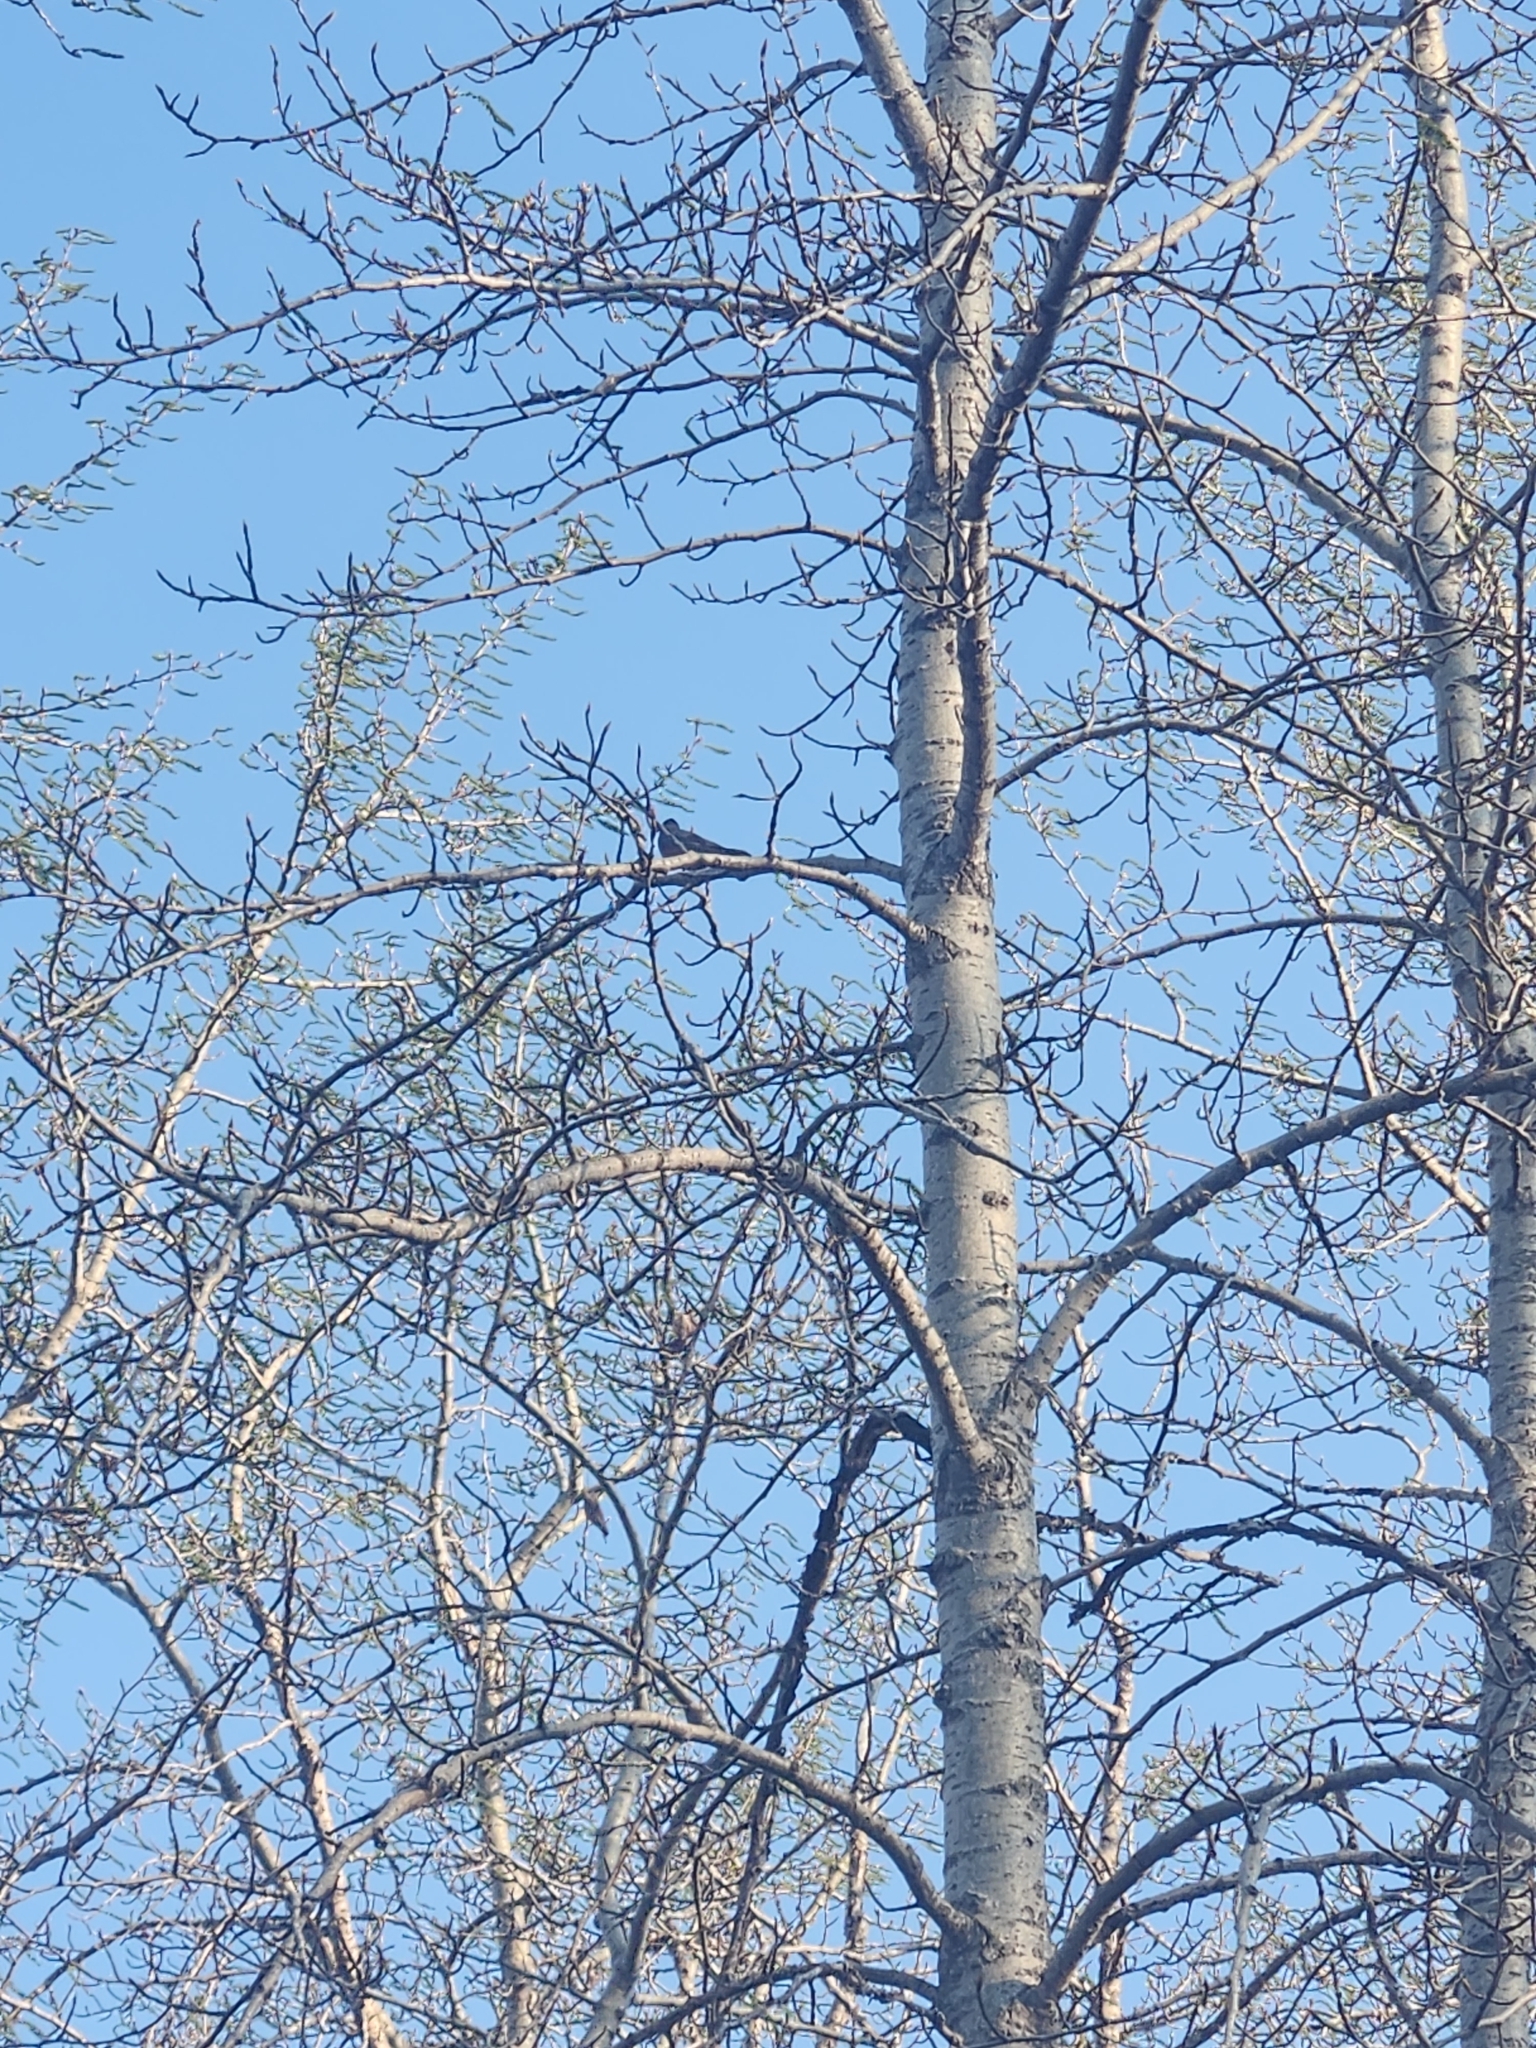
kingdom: Animalia
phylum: Chordata
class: Aves
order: Passeriformes
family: Turdidae
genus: Turdus
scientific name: Turdus migratorius
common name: American robin
